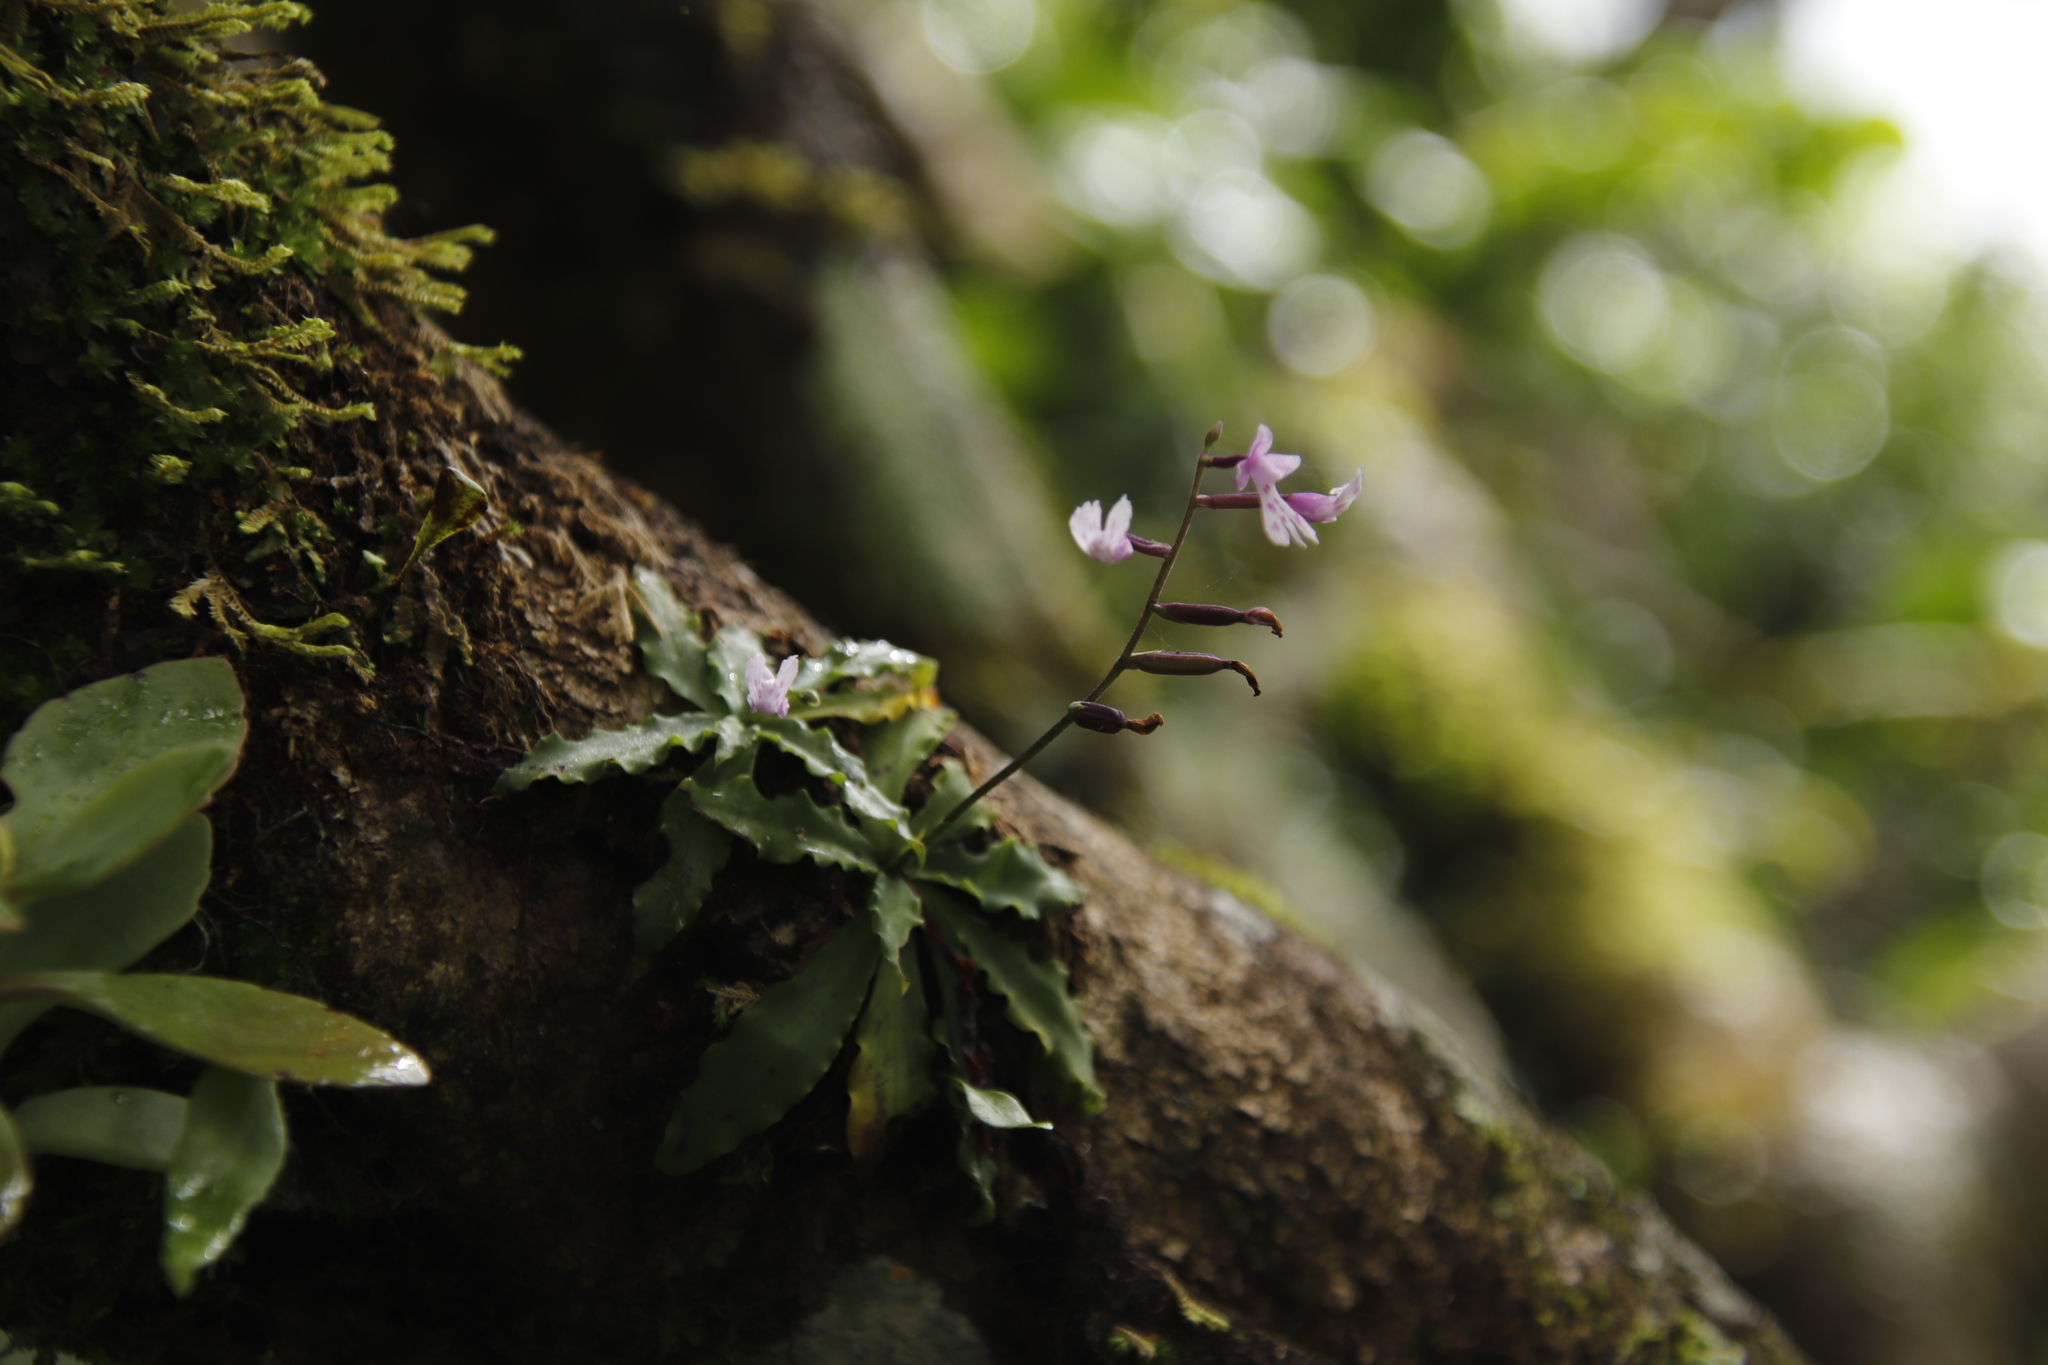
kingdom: Plantae
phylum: Tracheophyta
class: Liliopsida
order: Asparagales
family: Orchidaceae
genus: Stenoglottis
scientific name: Stenoglottis fimbriata
